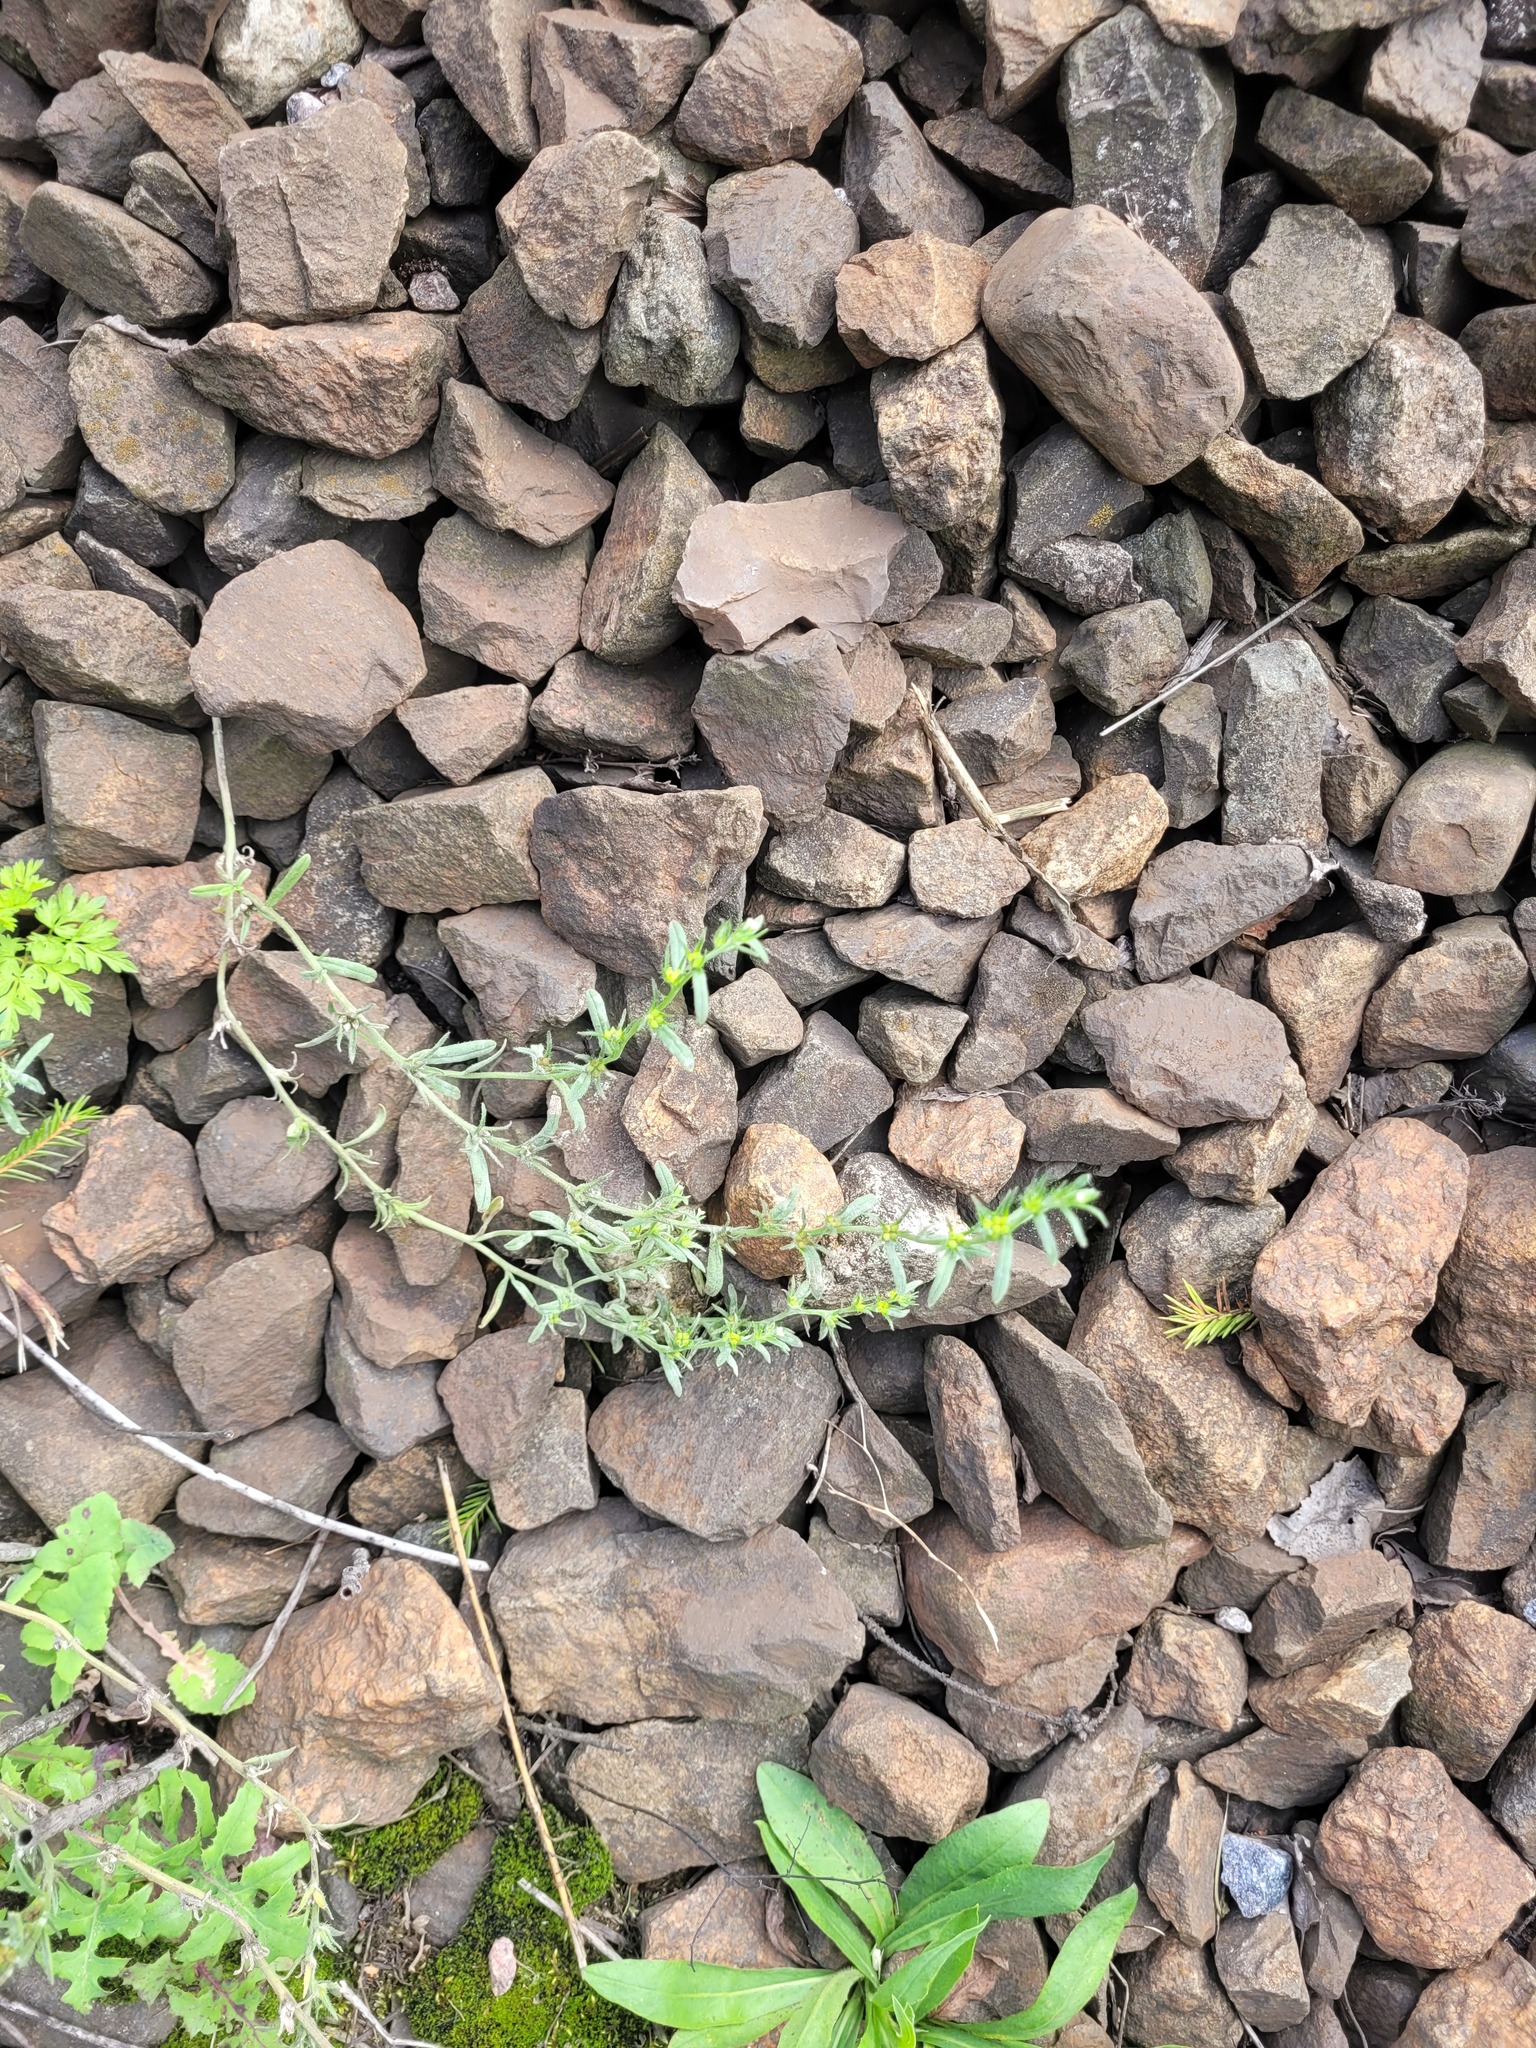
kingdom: Plantae
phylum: Tracheophyta
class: Magnoliopsida
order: Boraginales
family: Boraginaceae
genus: Buglossoides
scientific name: Buglossoides arvensis
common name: Corn gromwell
